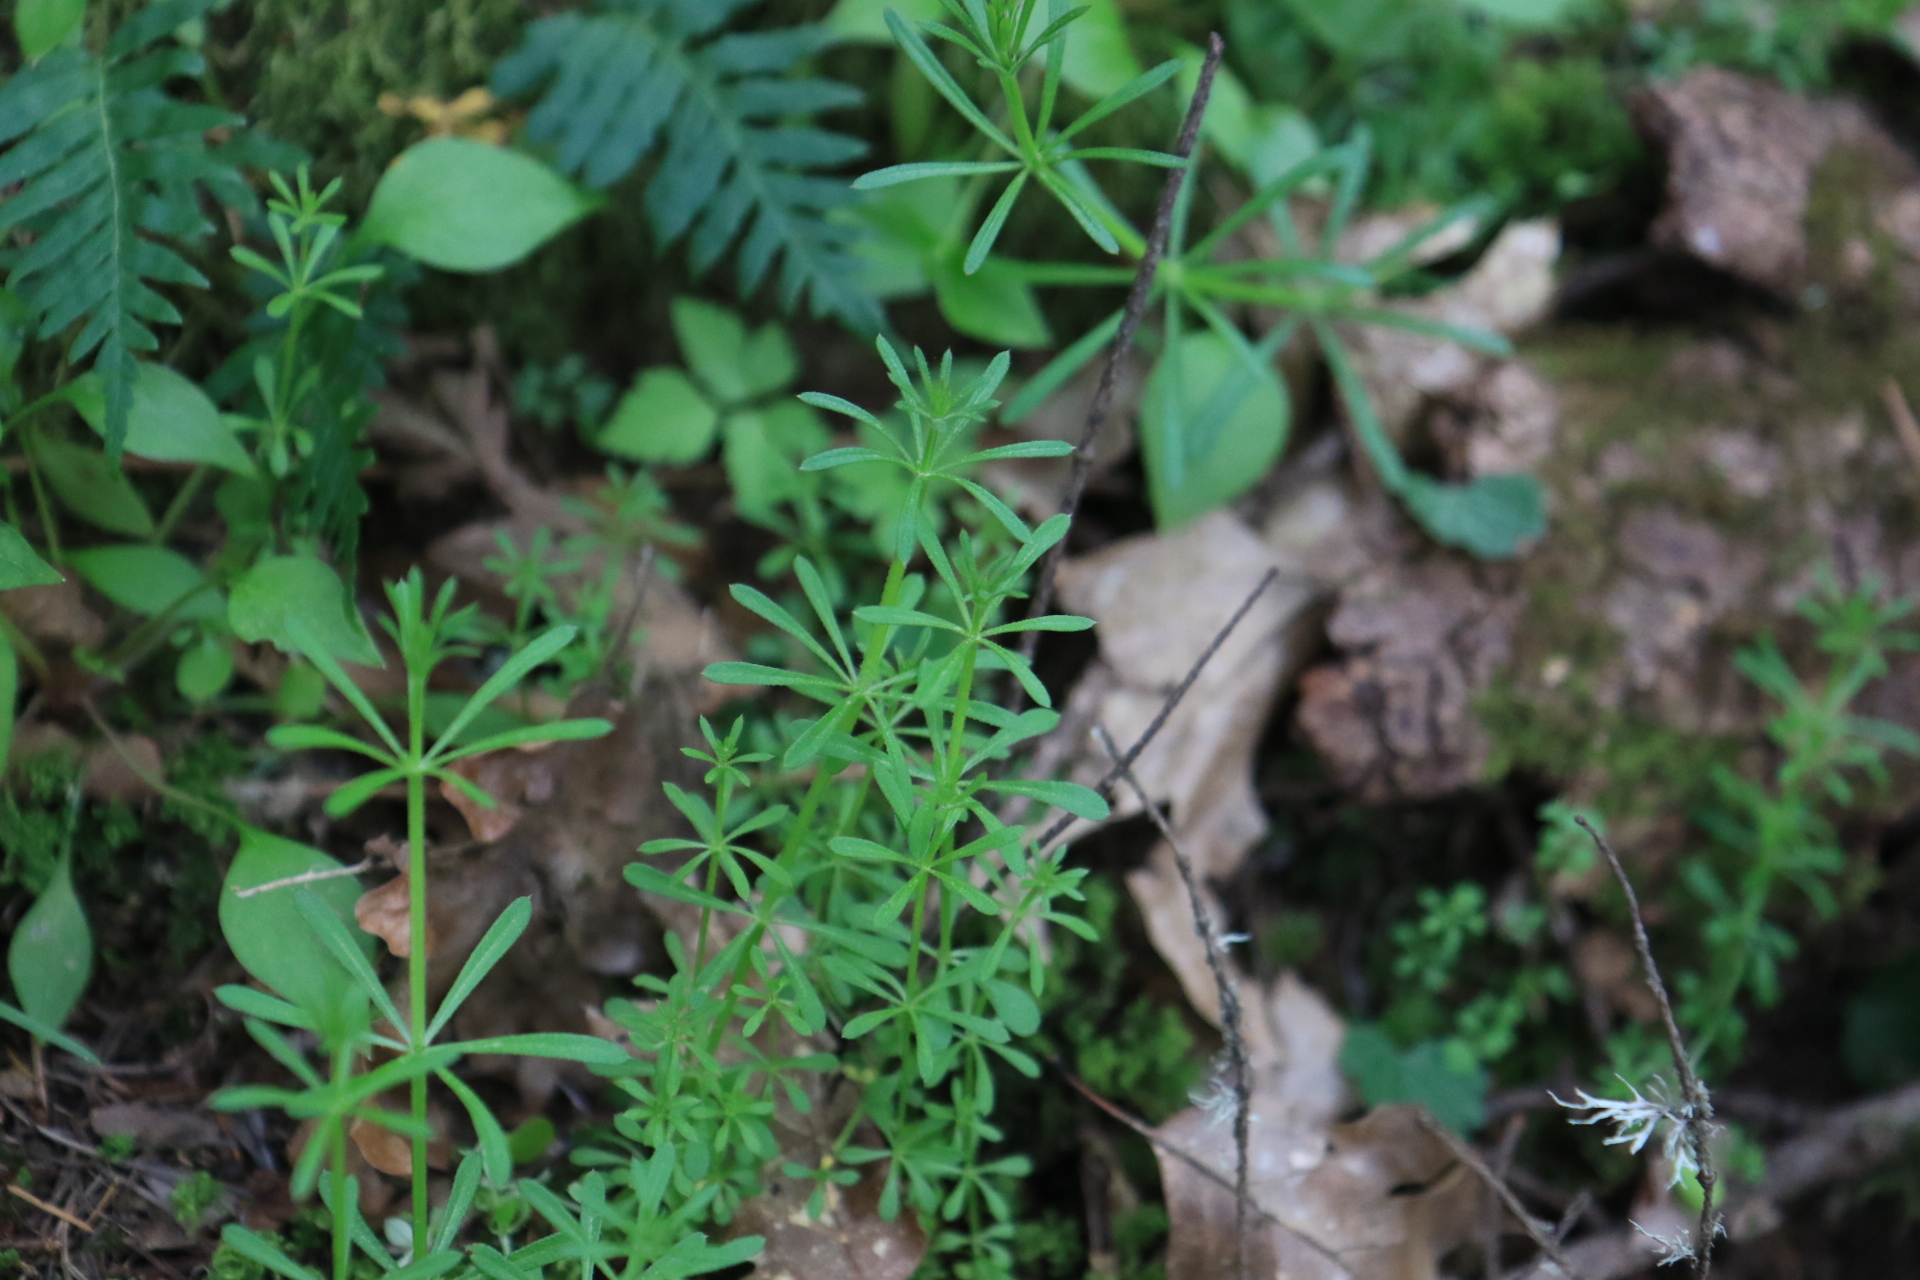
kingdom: Plantae
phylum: Tracheophyta
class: Magnoliopsida
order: Gentianales
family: Rubiaceae
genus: Galium
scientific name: Galium aparine
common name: Cleavers
